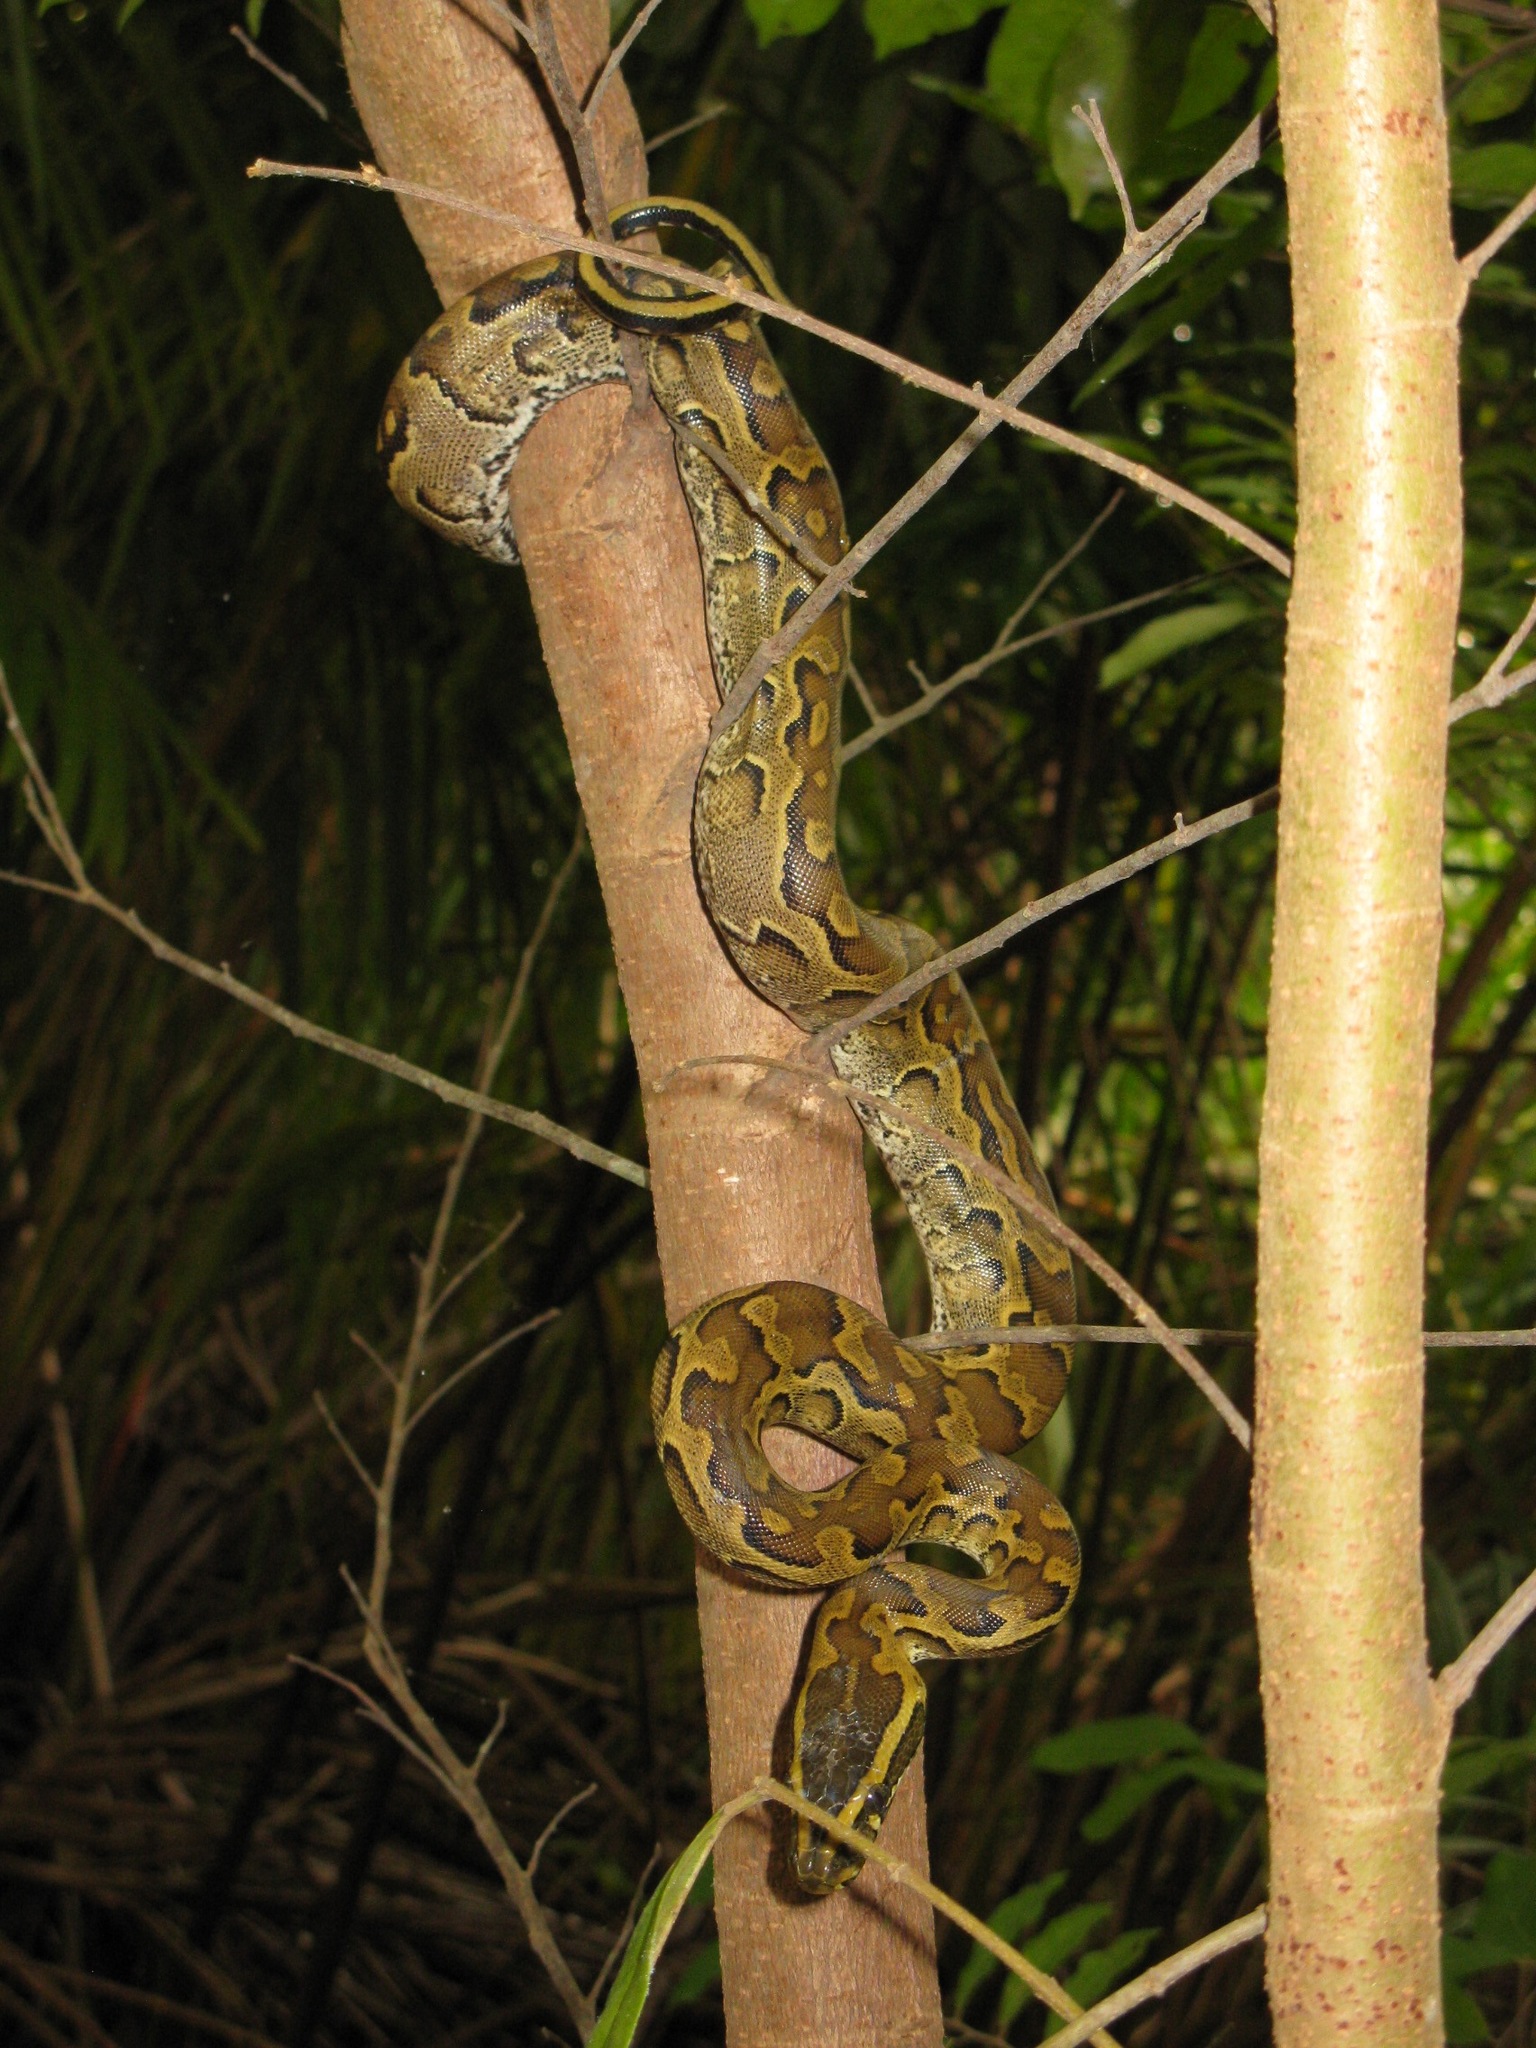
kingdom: Animalia
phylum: Chordata
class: Squamata
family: Pythonidae
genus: Python
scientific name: Python sebae
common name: African rock python
